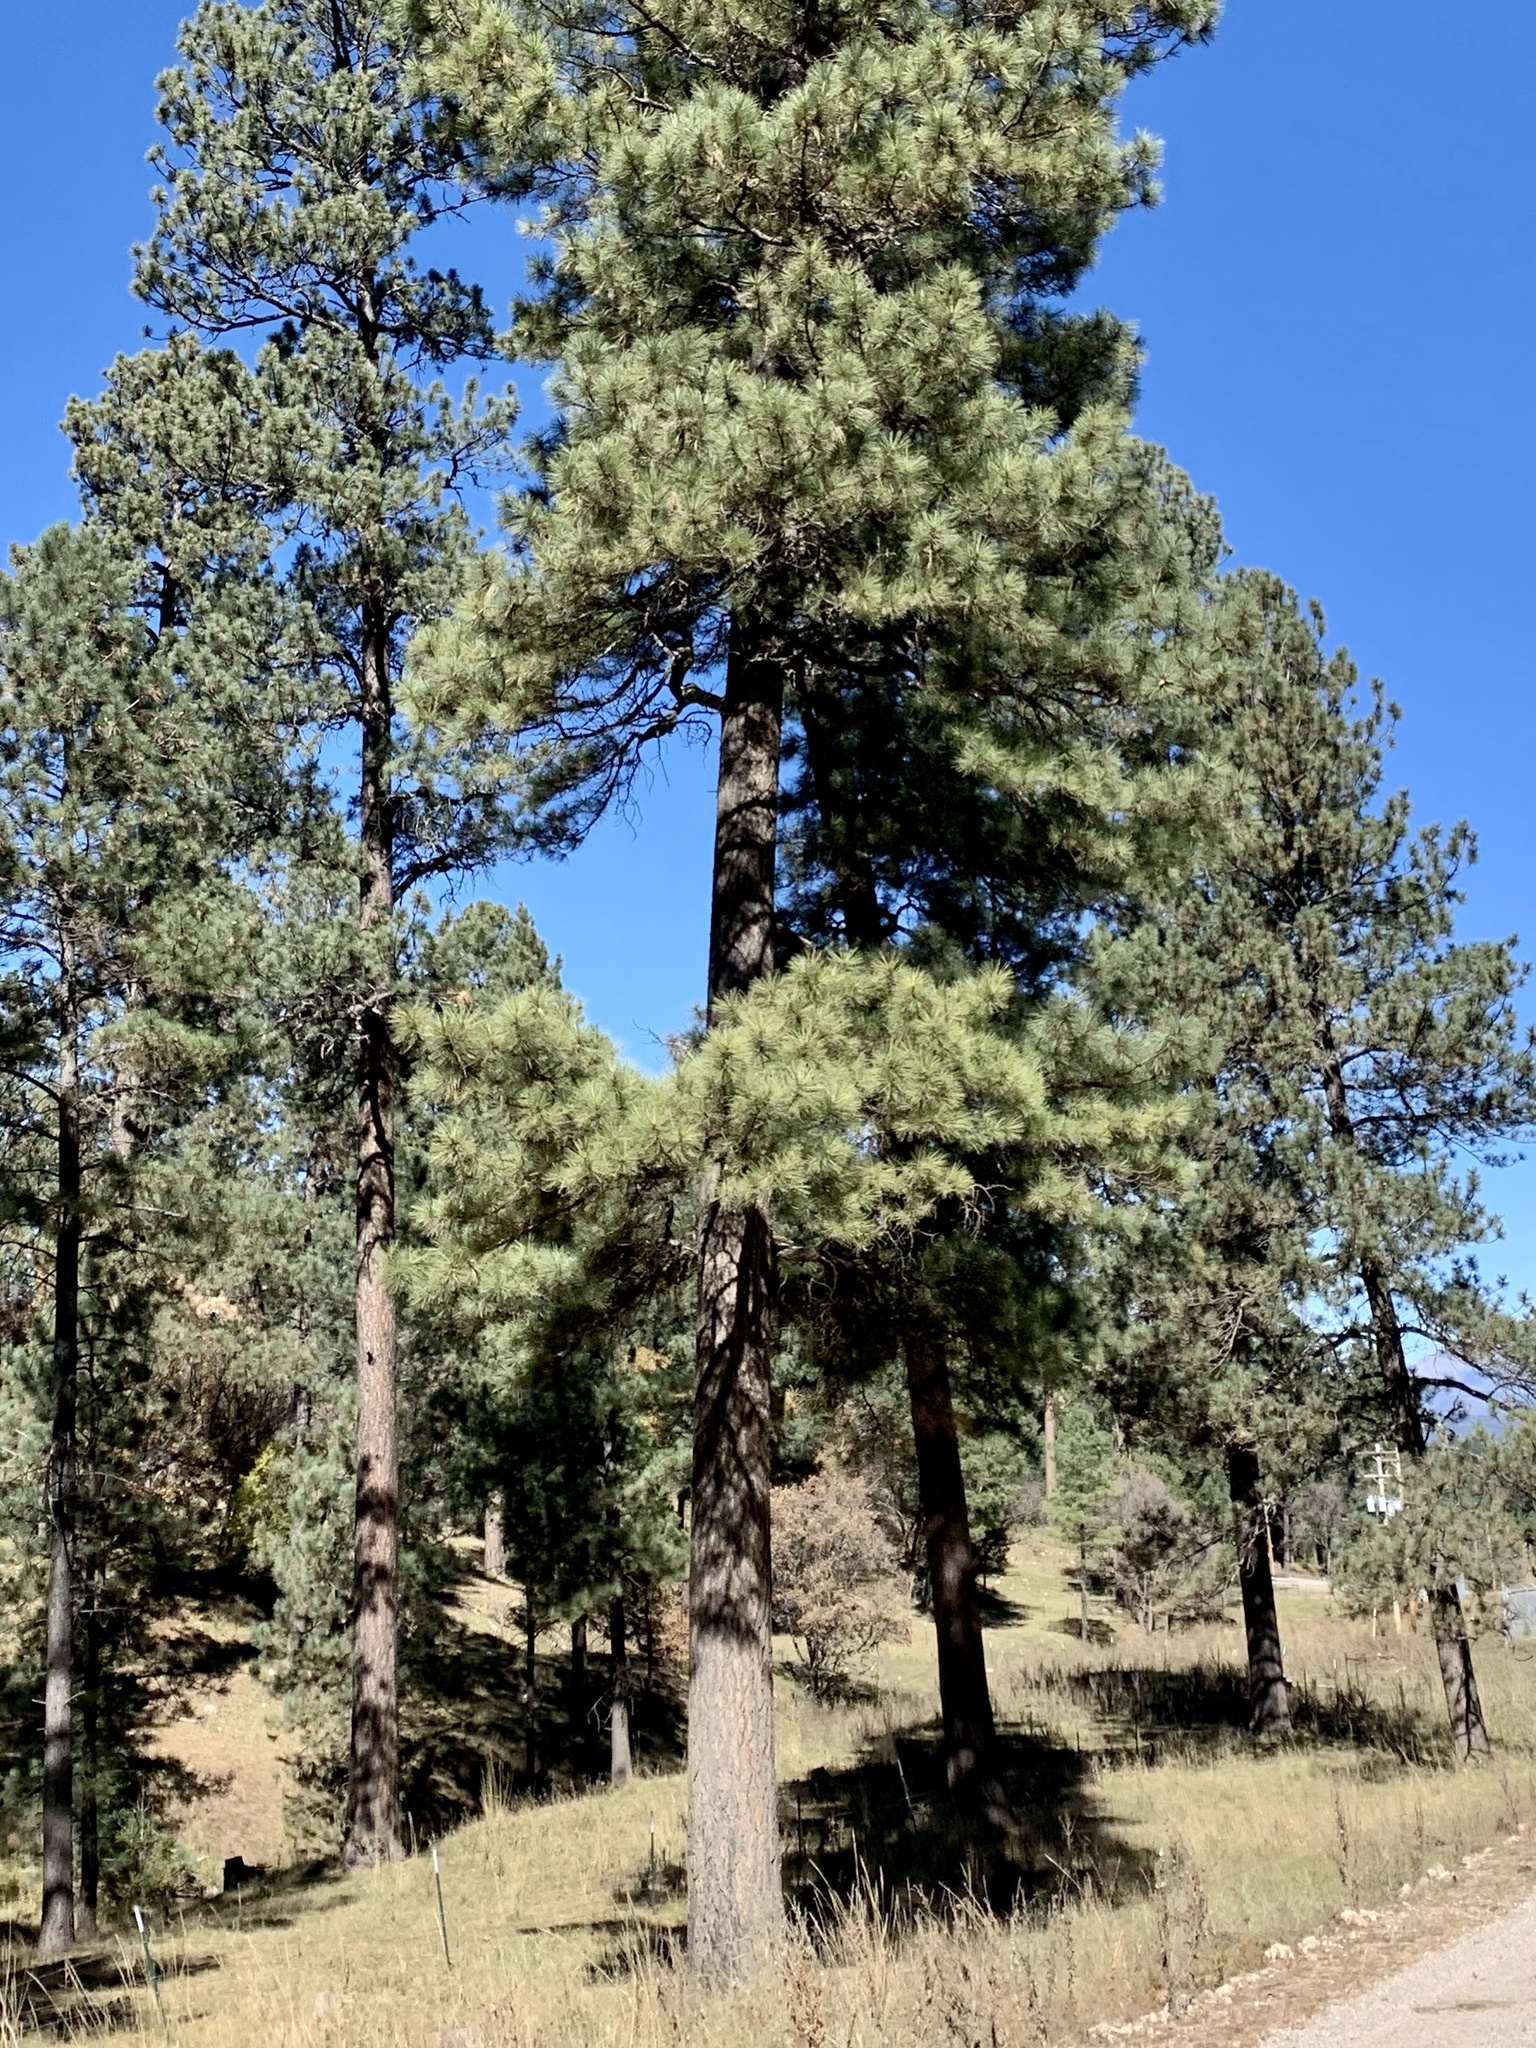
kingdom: Plantae
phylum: Tracheophyta
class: Pinopsida
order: Pinales
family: Pinaceae
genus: Pinus
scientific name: Pinus ponderosa
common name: Western yellow-pine
